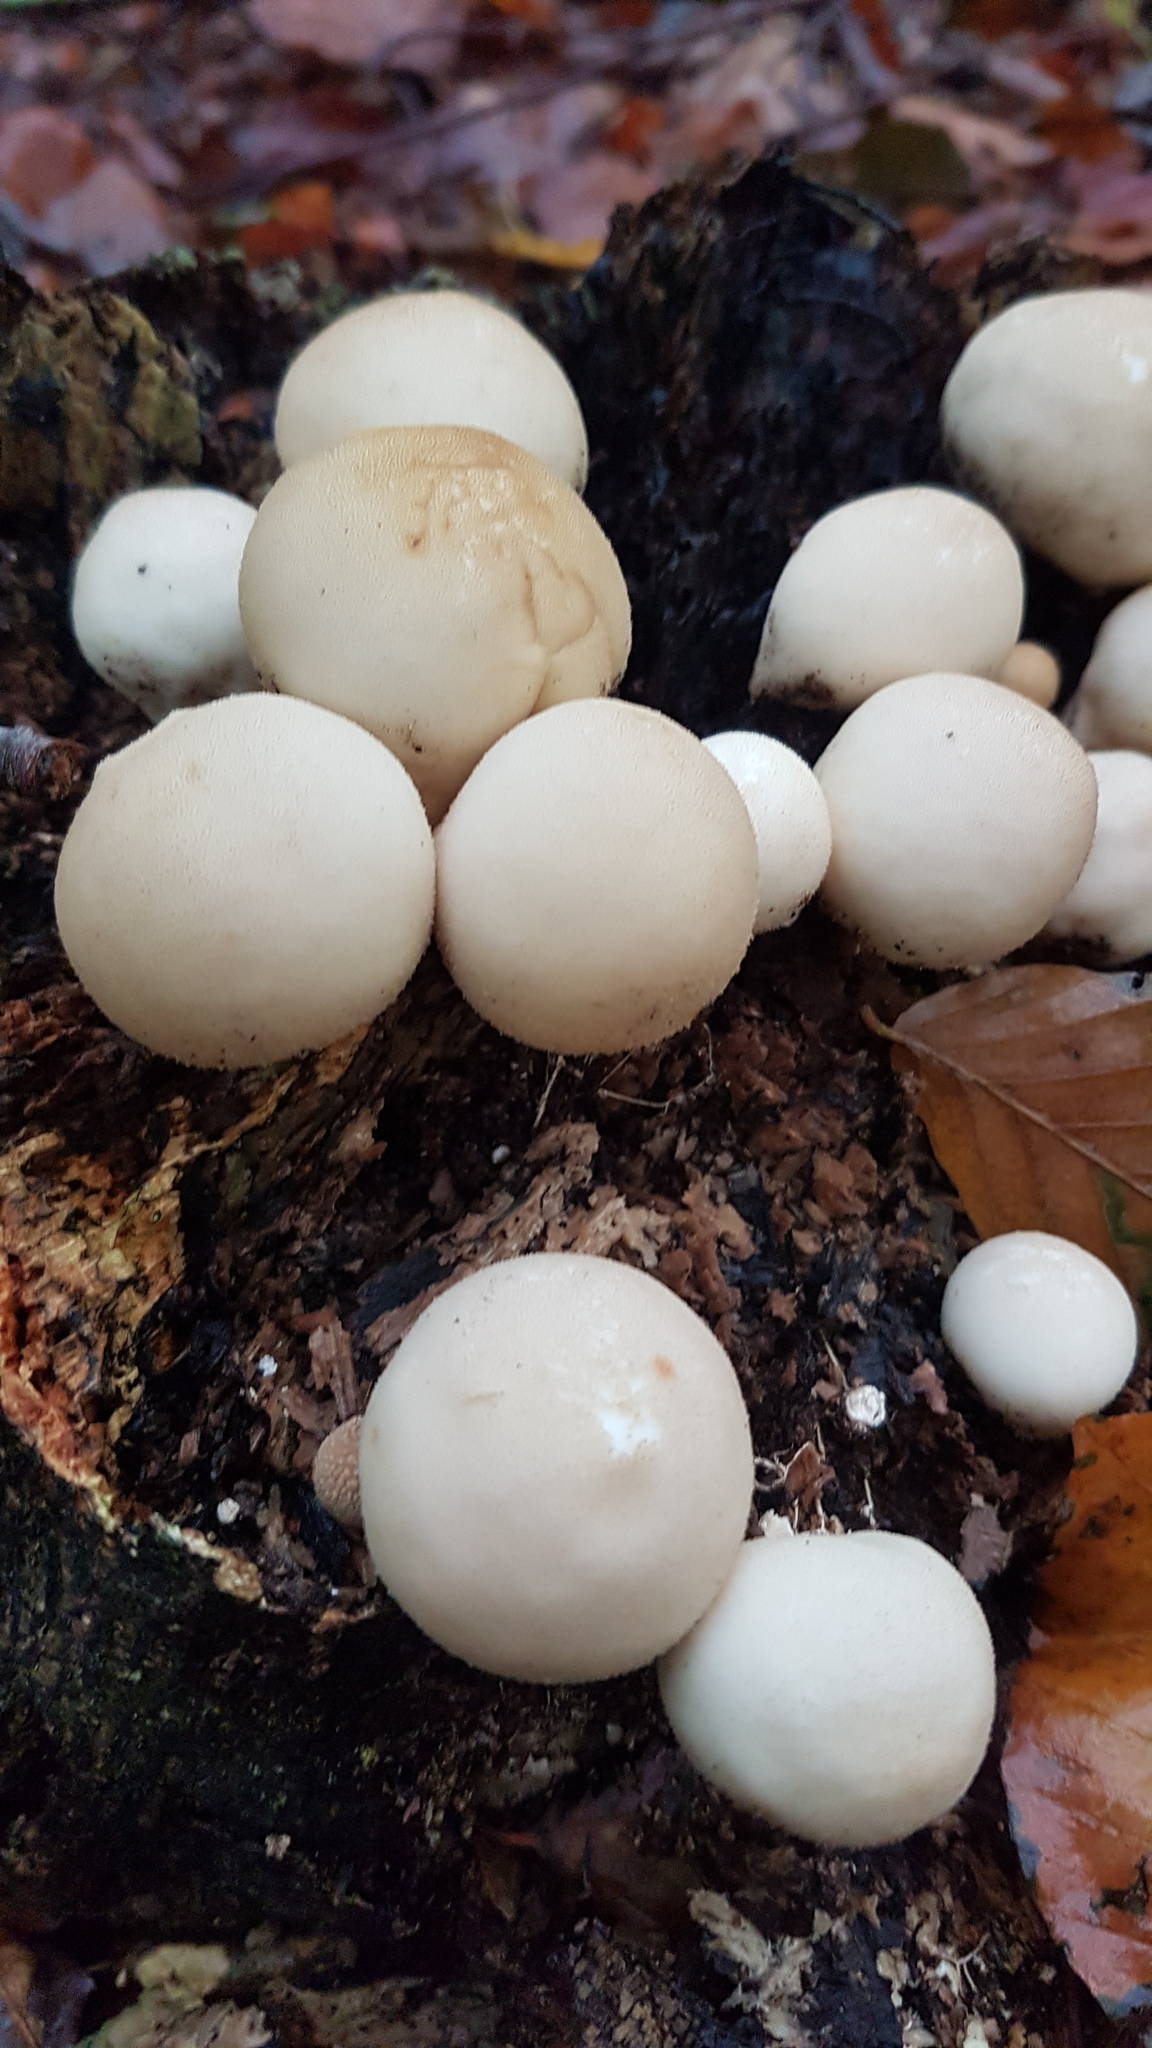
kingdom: Fungi
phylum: Basidiomycota
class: Agaricomycetes
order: Agaricales
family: Lycoperdaceae
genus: Apioperdon
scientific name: Apioperdon pyriforme
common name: Pear-shaped puffball
